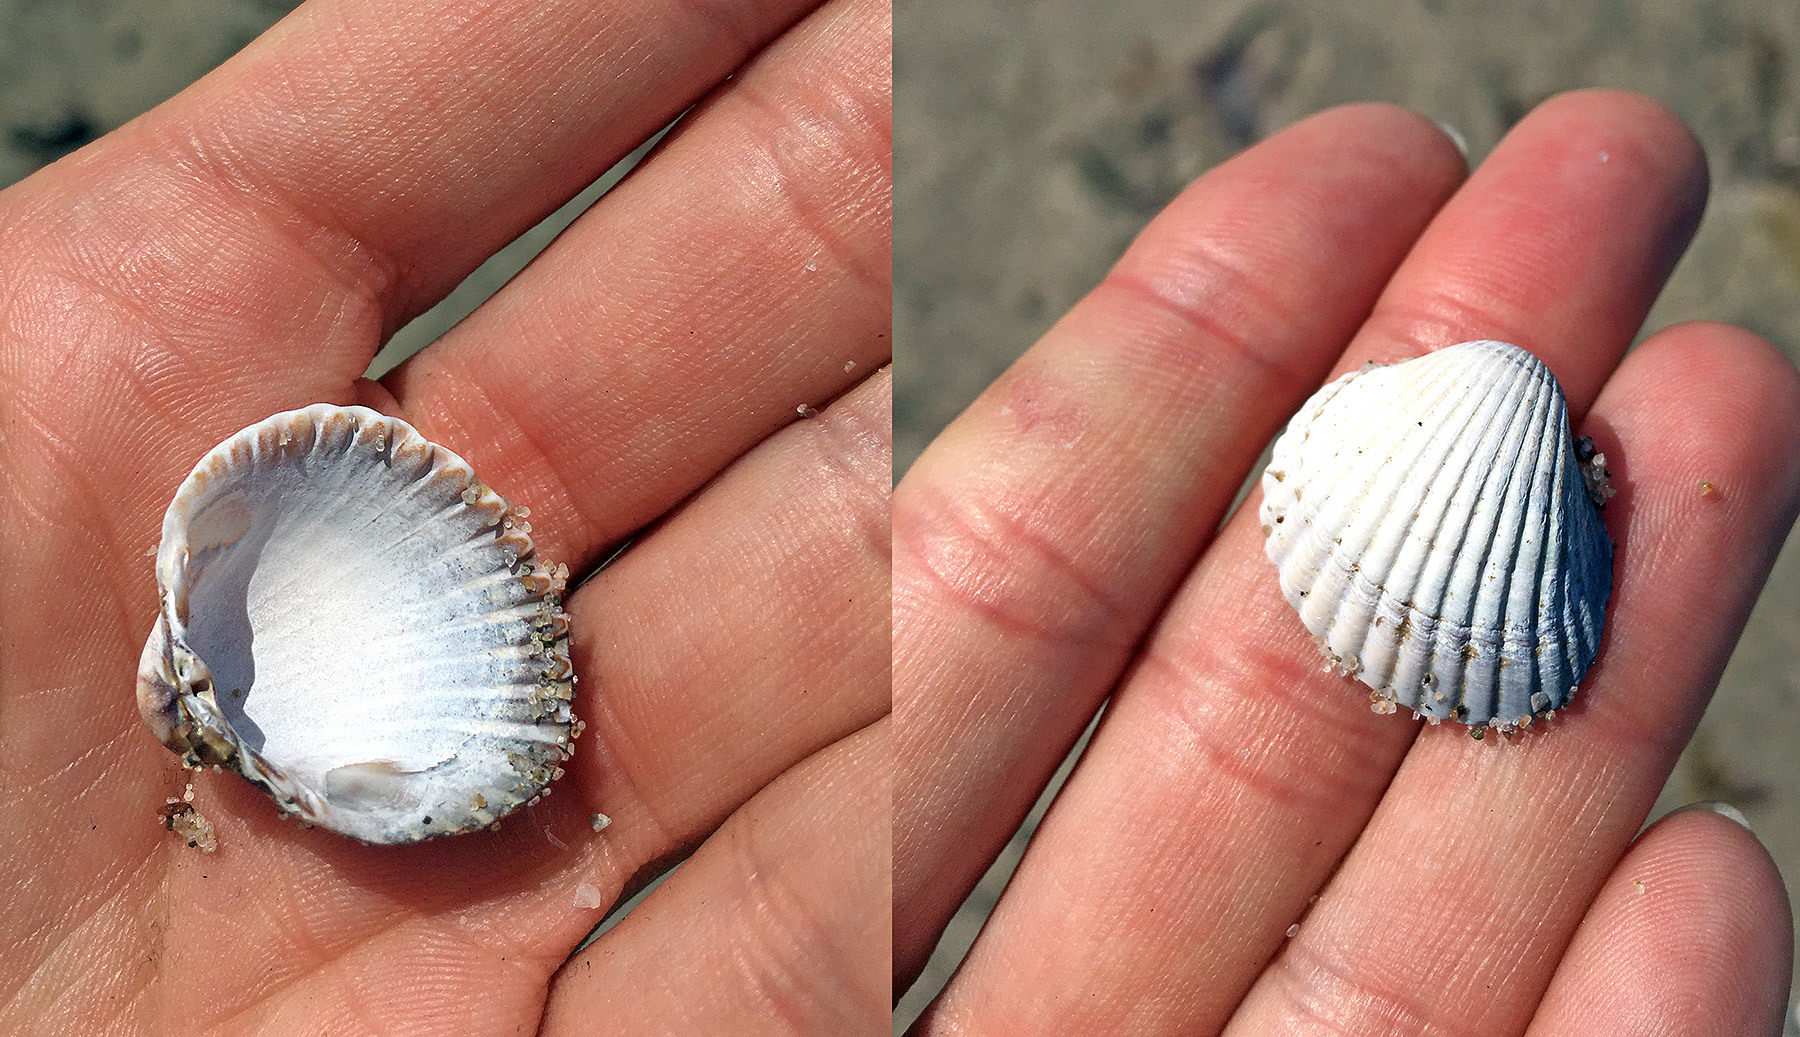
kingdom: Animalia
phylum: Mollusca
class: Bivalvia
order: Cardiida
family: Cardiidae
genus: Cerastoderma
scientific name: Cerastoderma edule
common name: Common cockle
